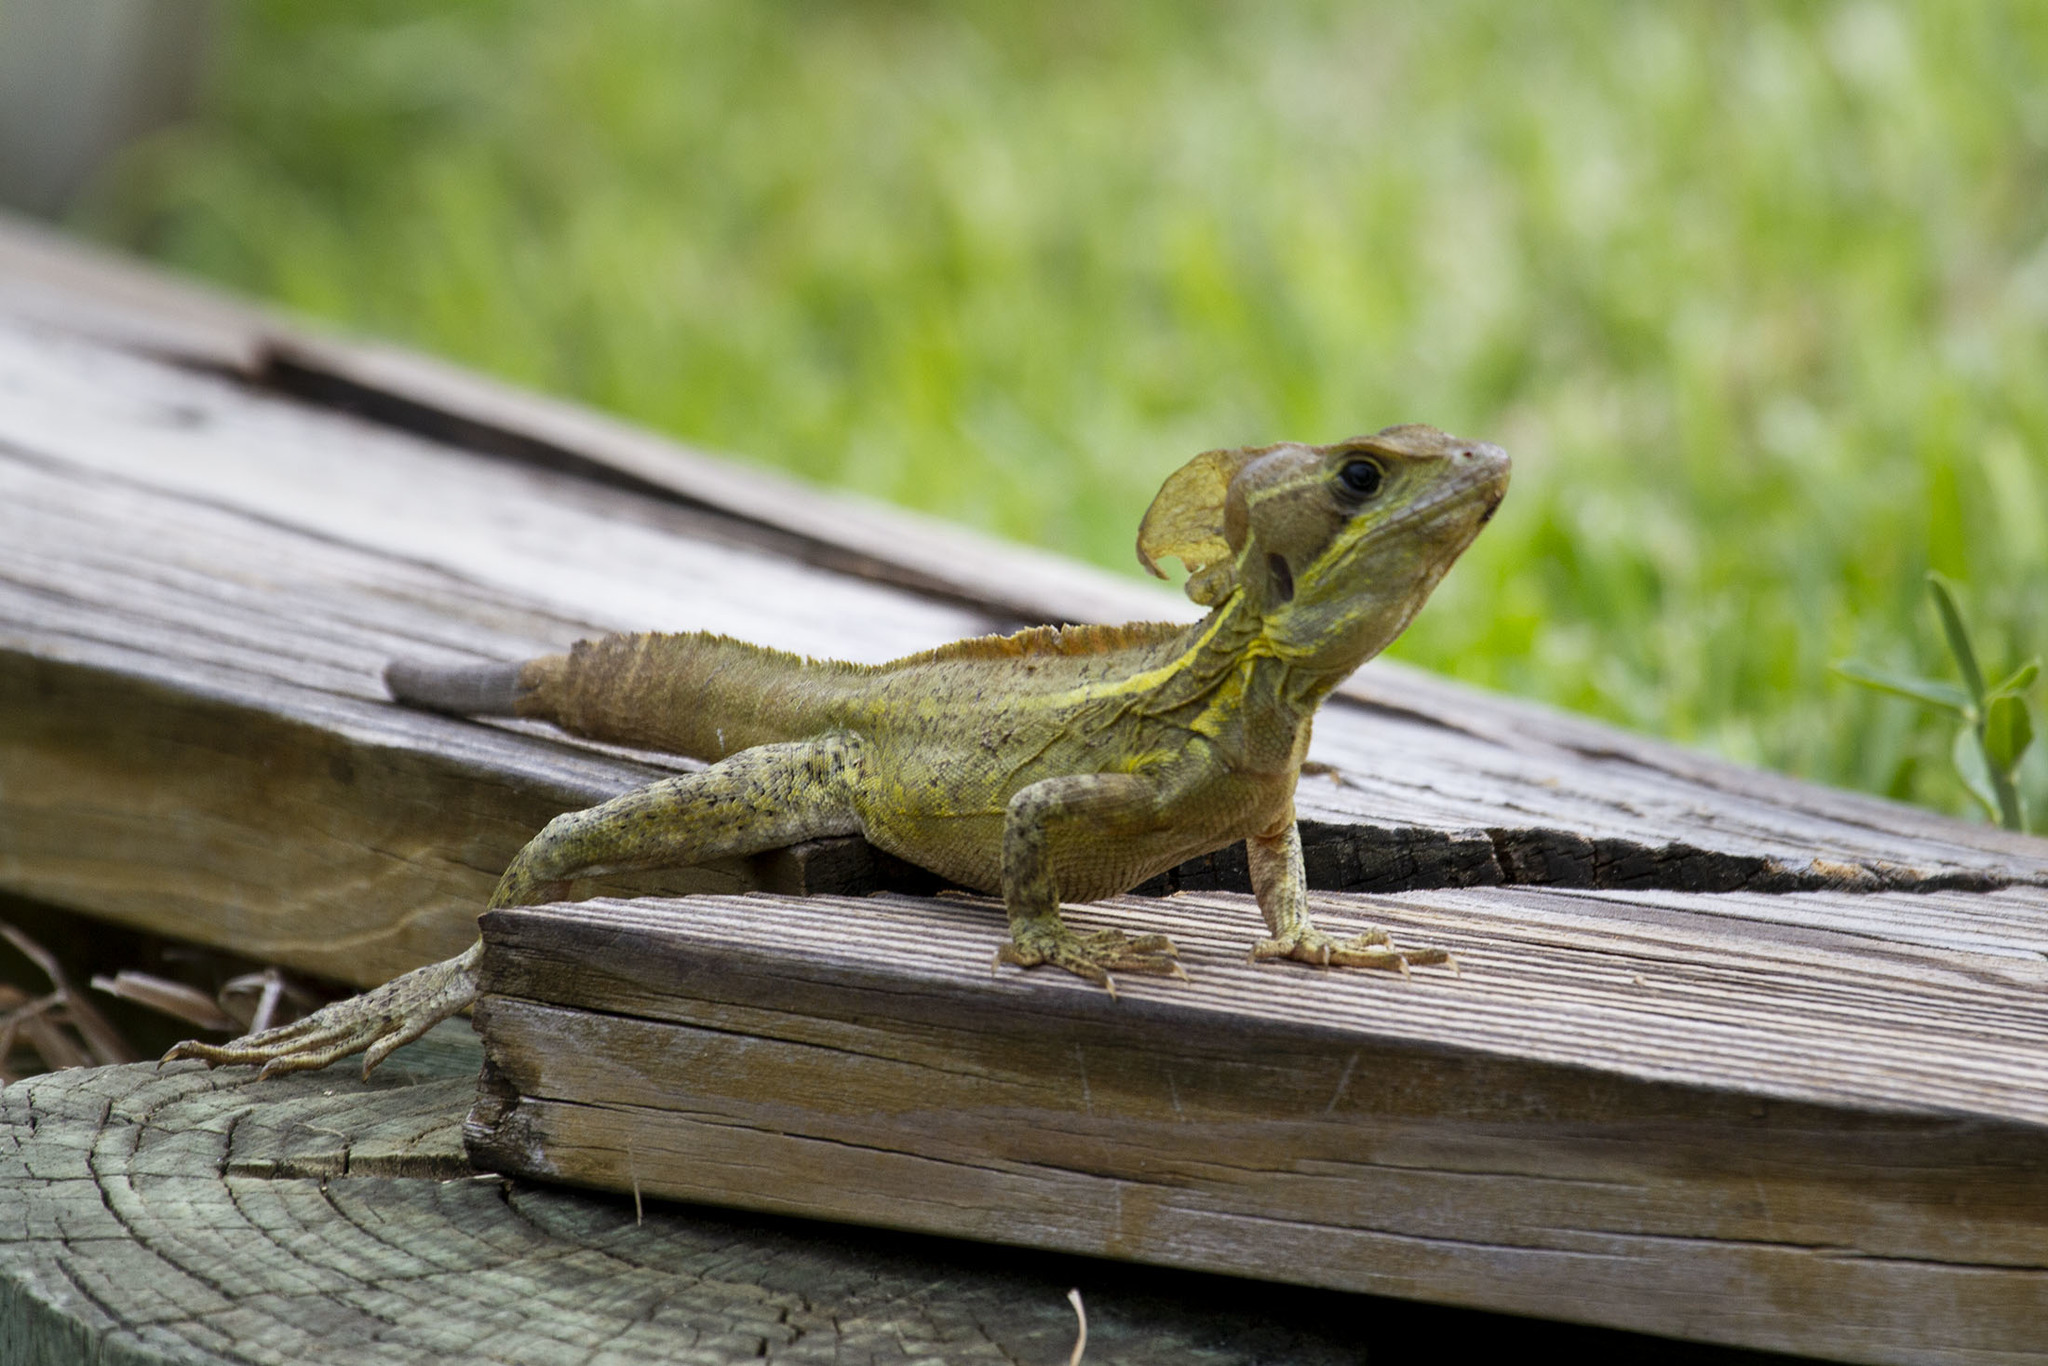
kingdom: Animalia
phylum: Chordata
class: Squamata
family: Corytophanidae
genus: Basiliscus
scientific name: Basiliscus vittatus
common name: Brown basilisk
